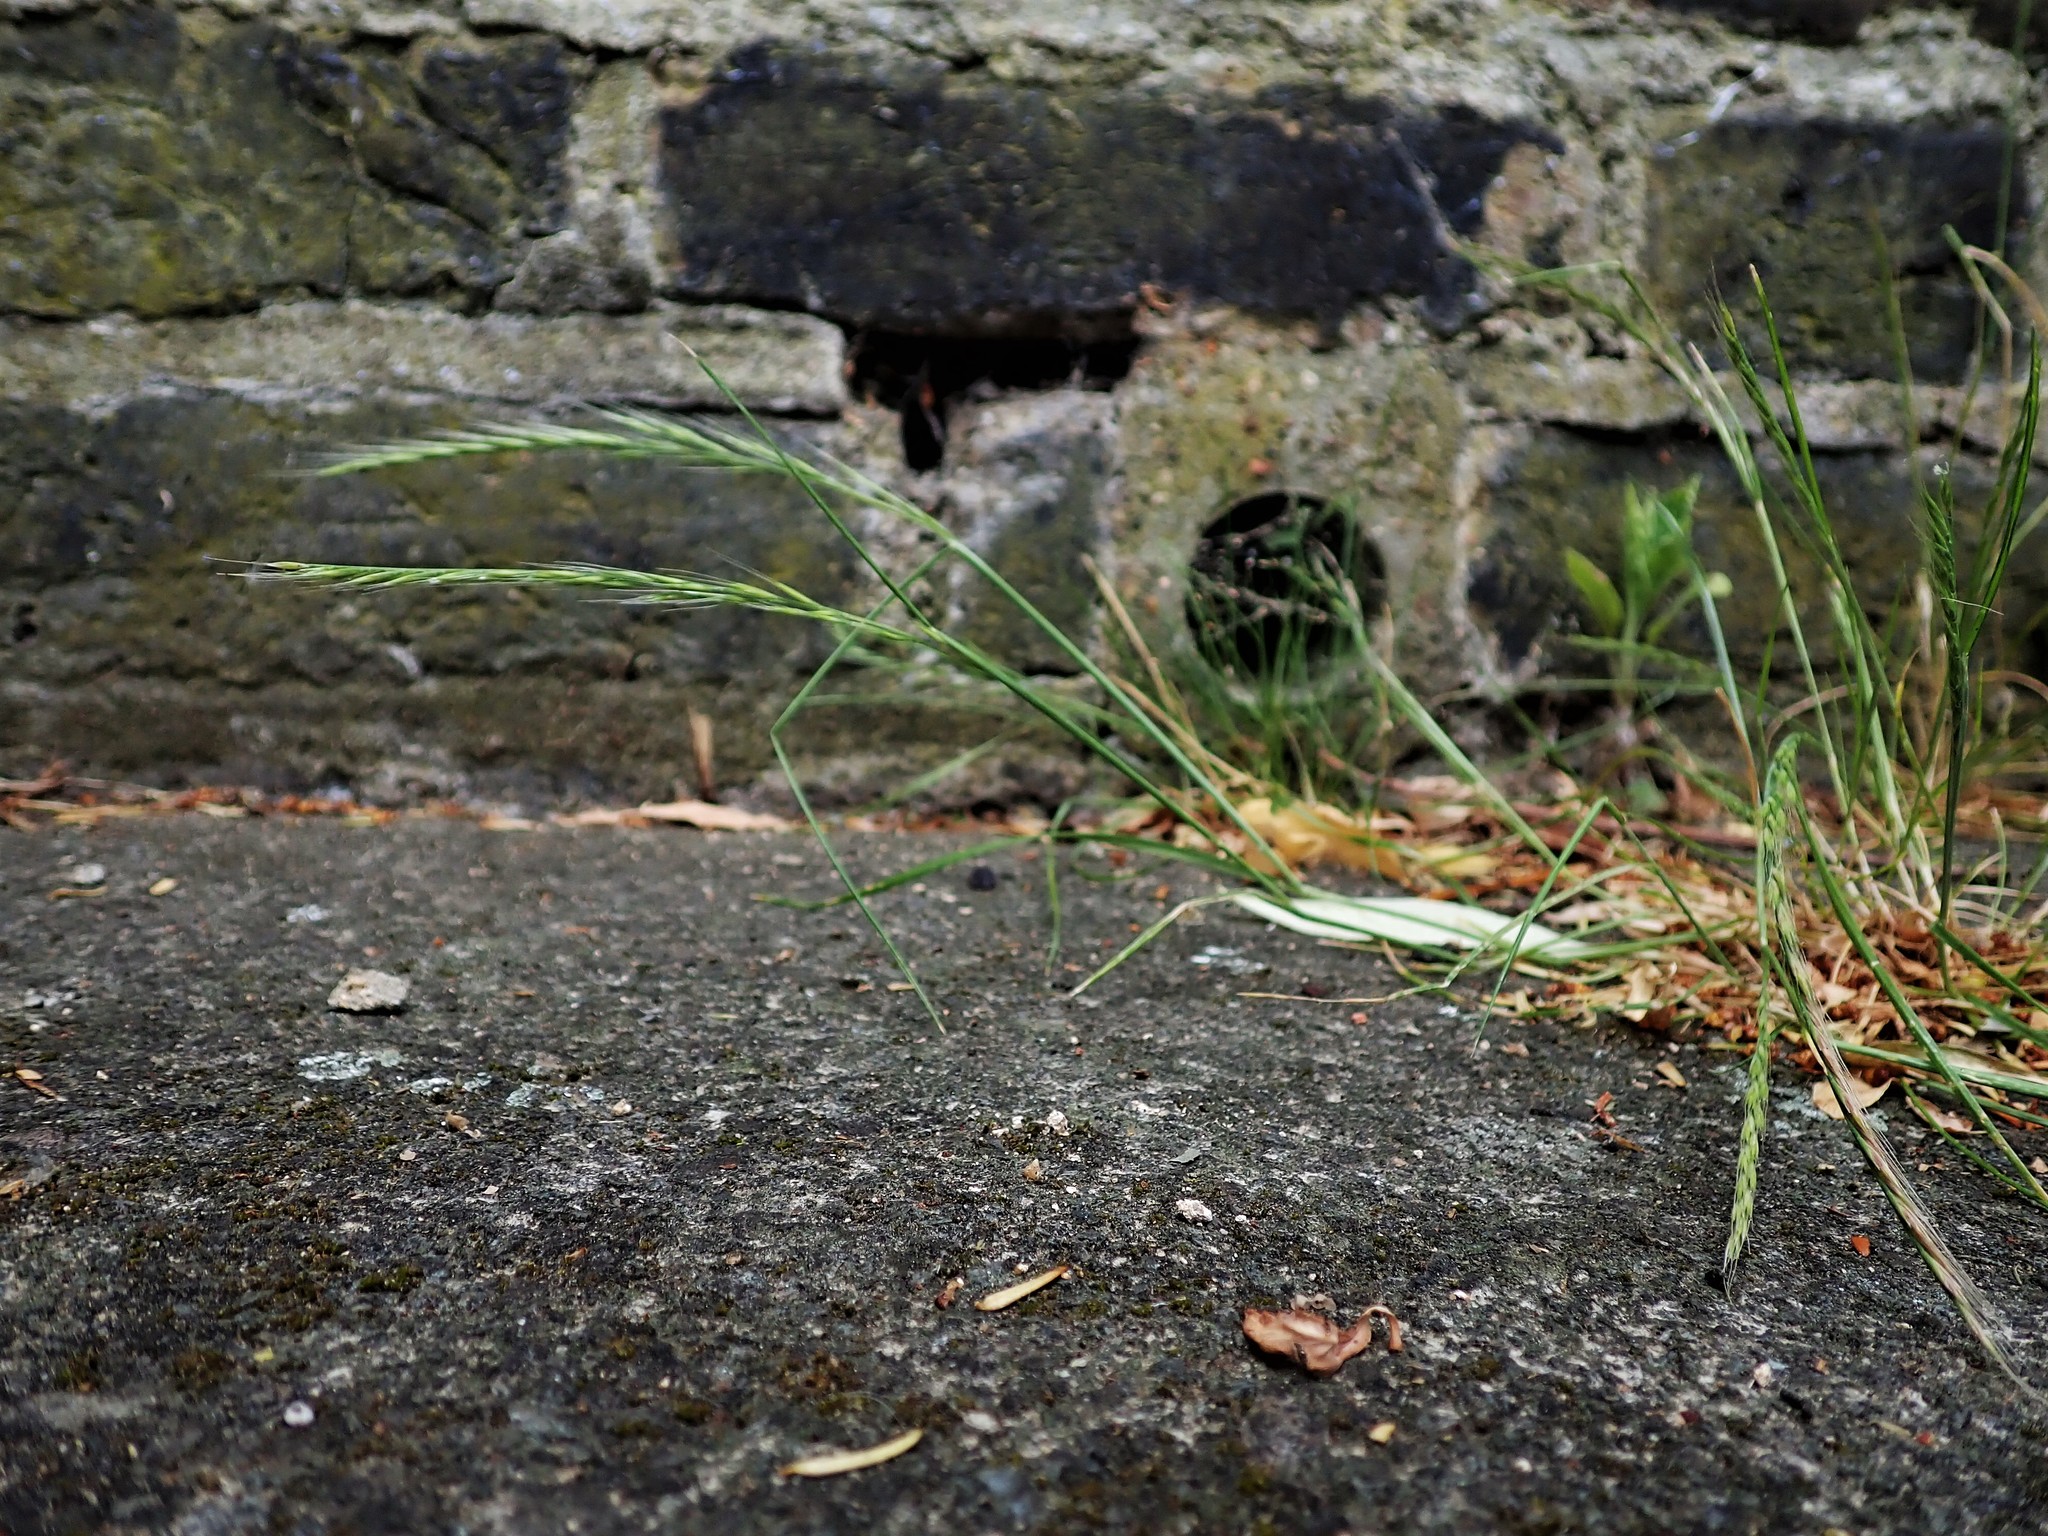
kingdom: Plantae
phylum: Tracheophyta
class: Liliopsida
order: Poales
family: Poaceae
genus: Festuca
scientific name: Festuca myuros
